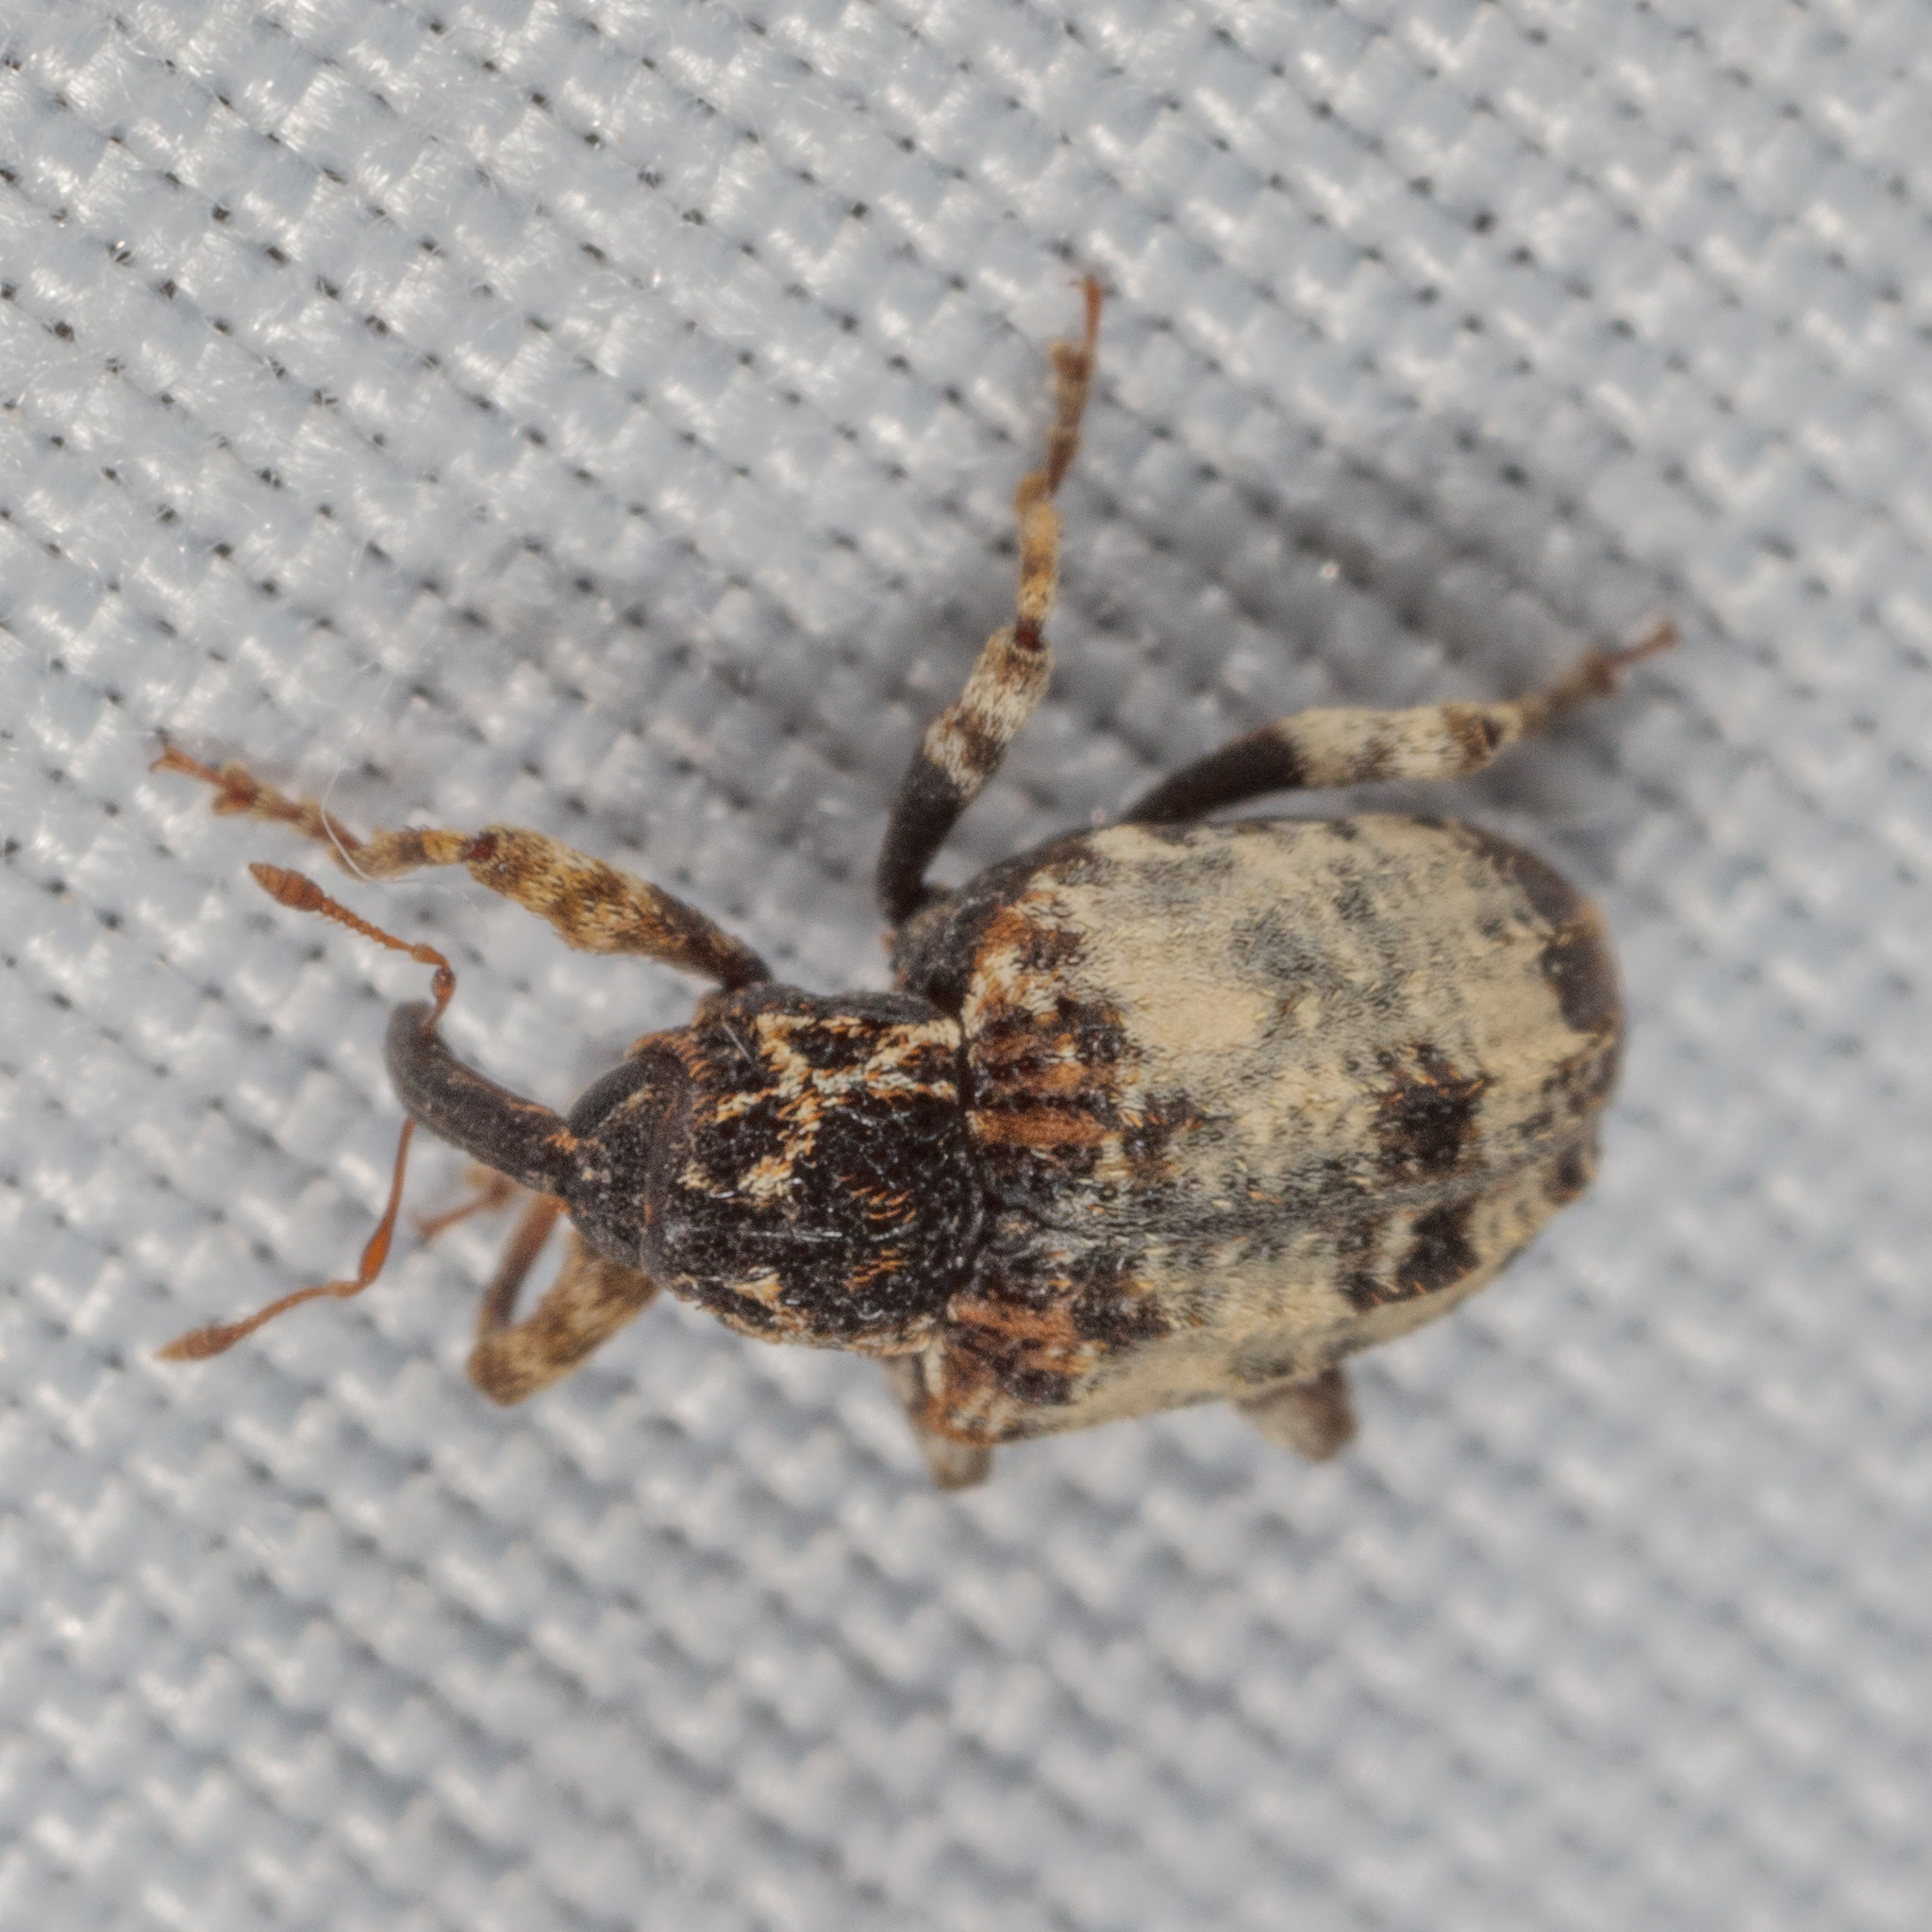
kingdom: Animalia
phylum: Arthropoda
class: Insecta
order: Coleoptera
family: Curculionidae
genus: Conotrachelus
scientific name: Conotrachelus leucophaeatus
